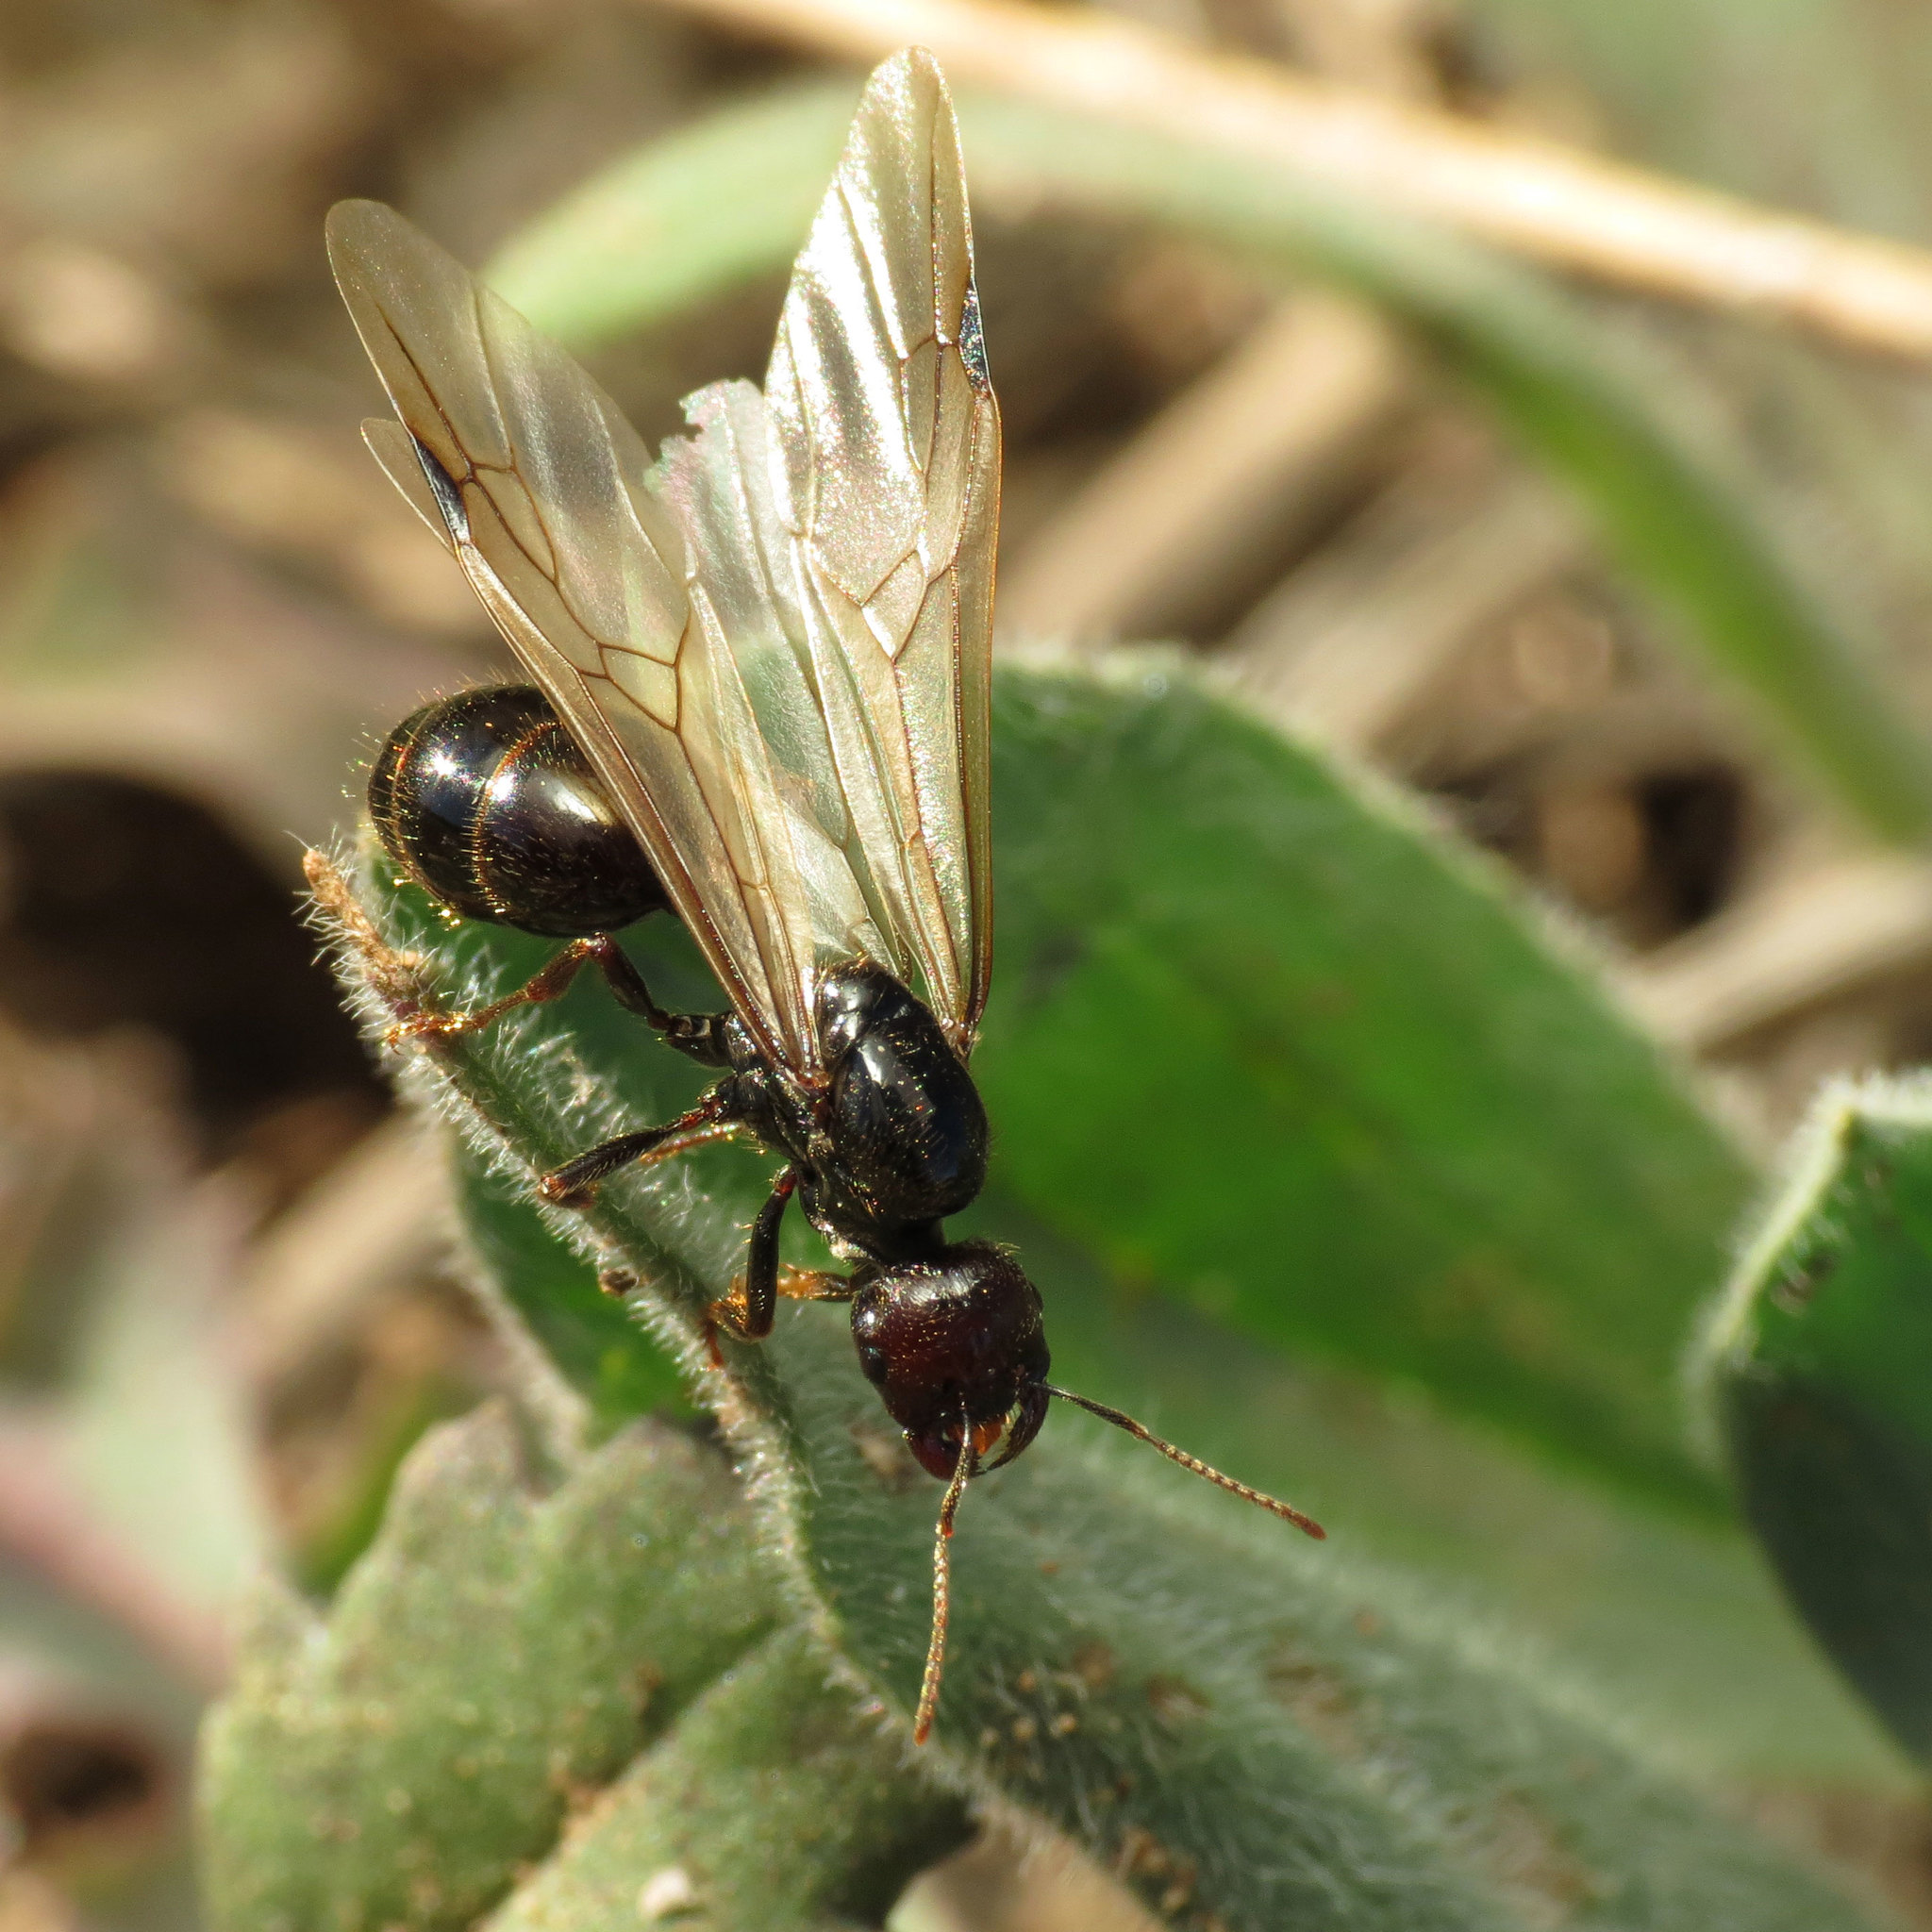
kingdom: Animalia
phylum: Arthropoda
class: Insecta
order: Hymenoptera
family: Formicidae
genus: Messor
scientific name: Messor barbarus
